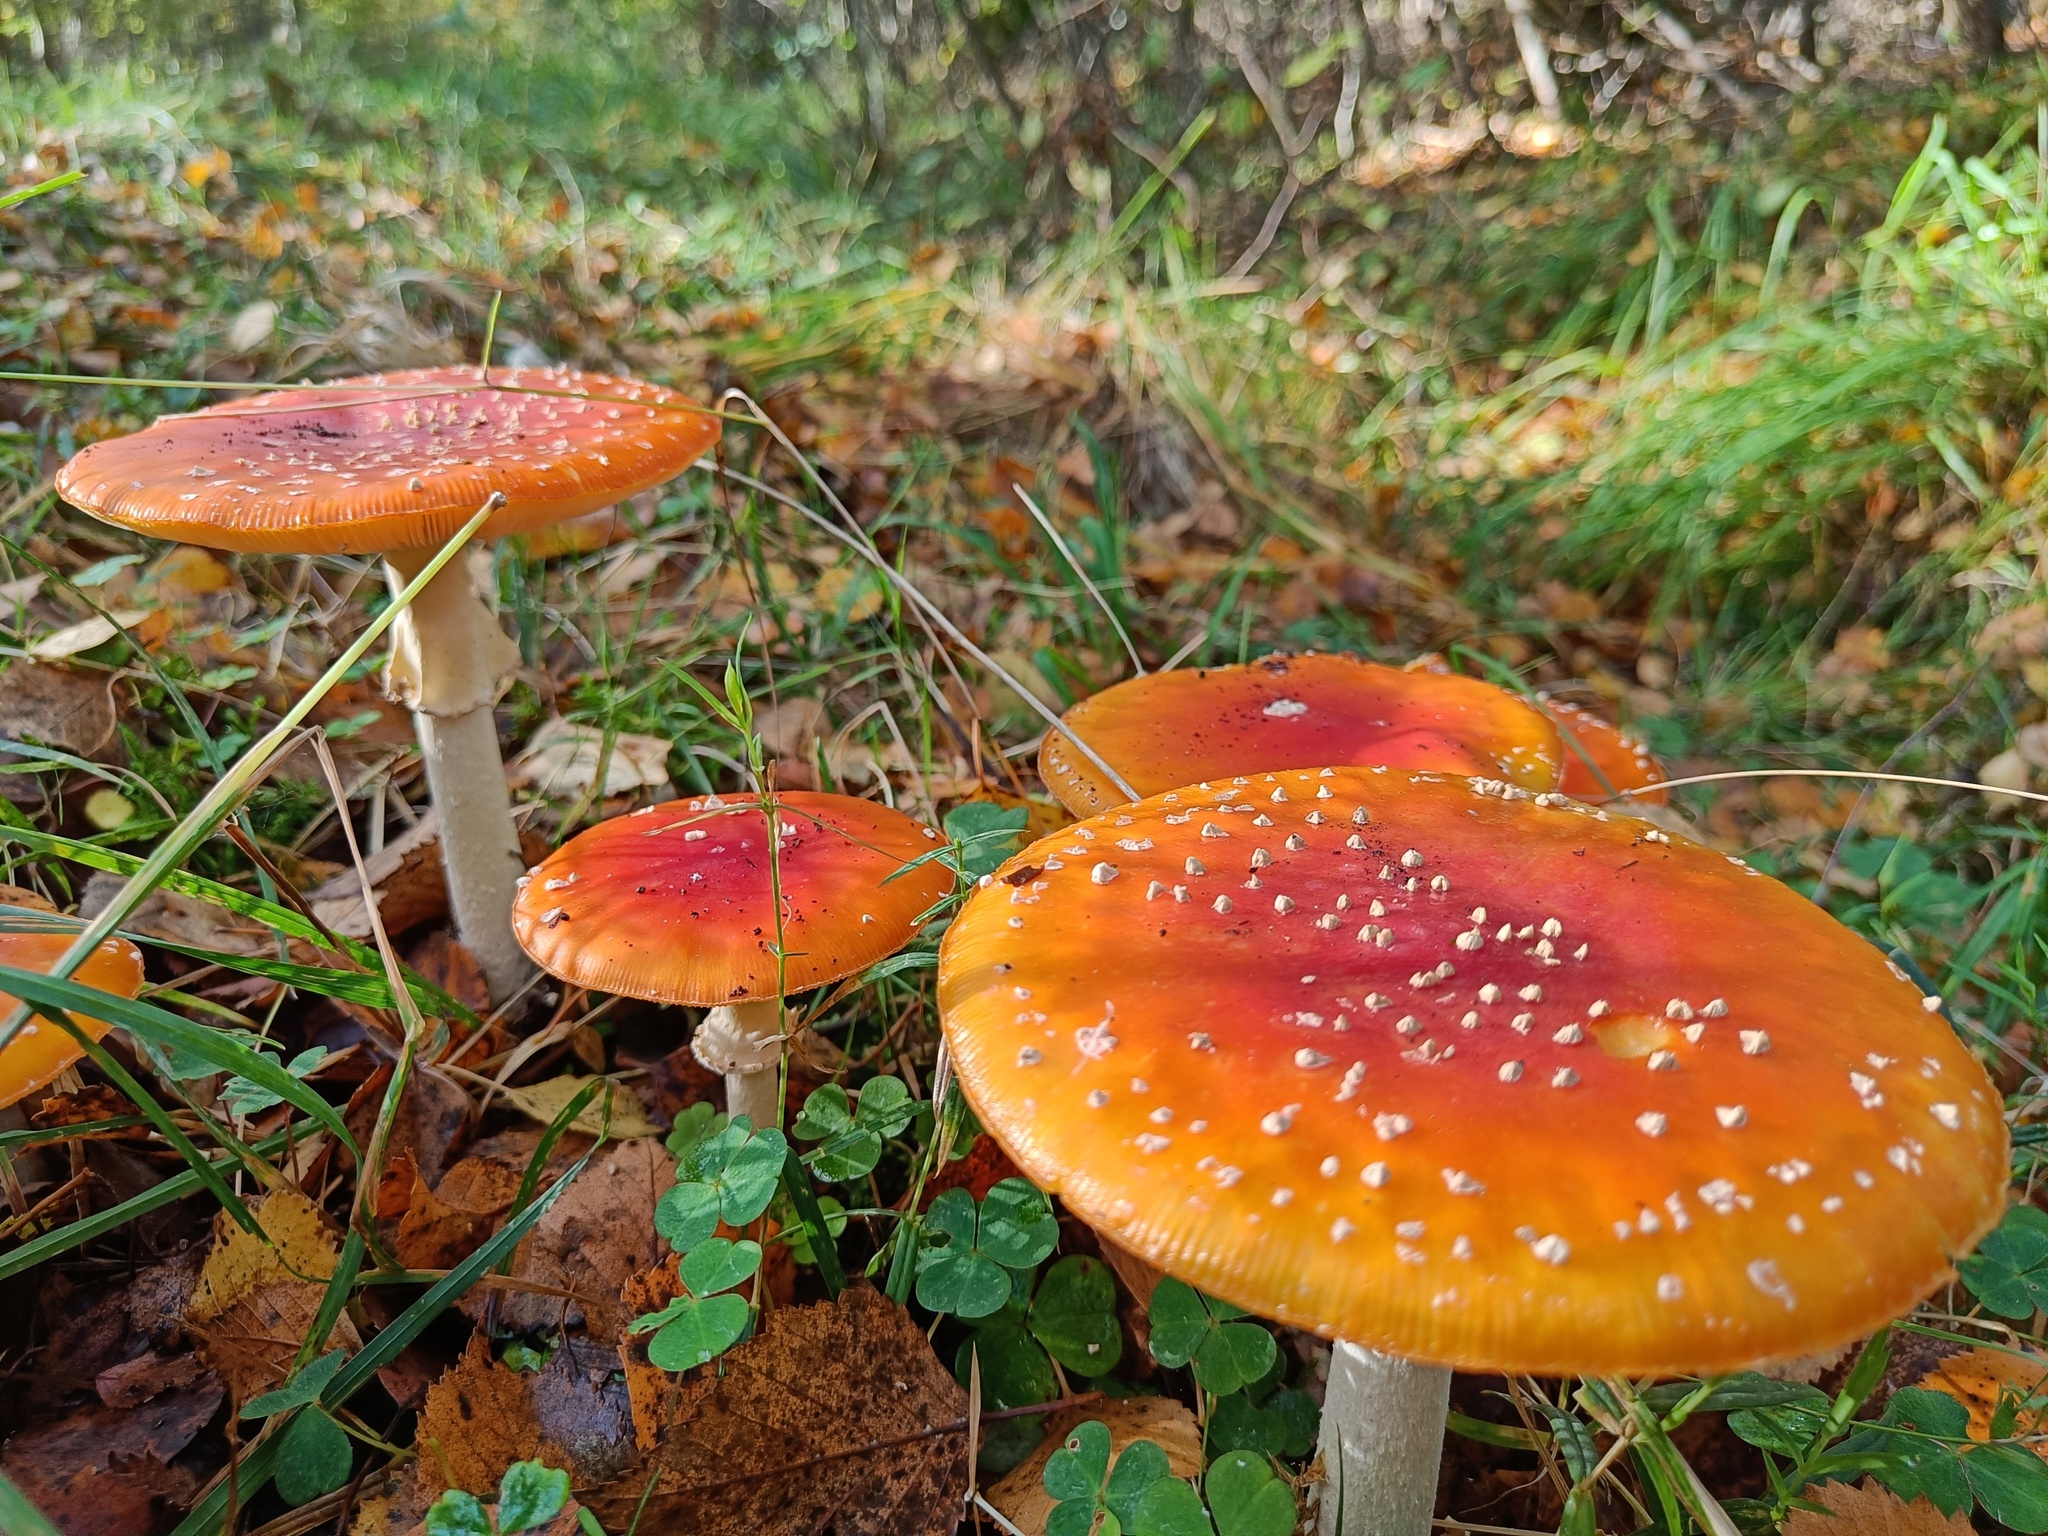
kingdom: Fungi
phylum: Basidiomycota
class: Agaricomycetes
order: Agaricales
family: Amanitaceae
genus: Amanita
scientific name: Amanita muscaria
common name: Fly agaric
